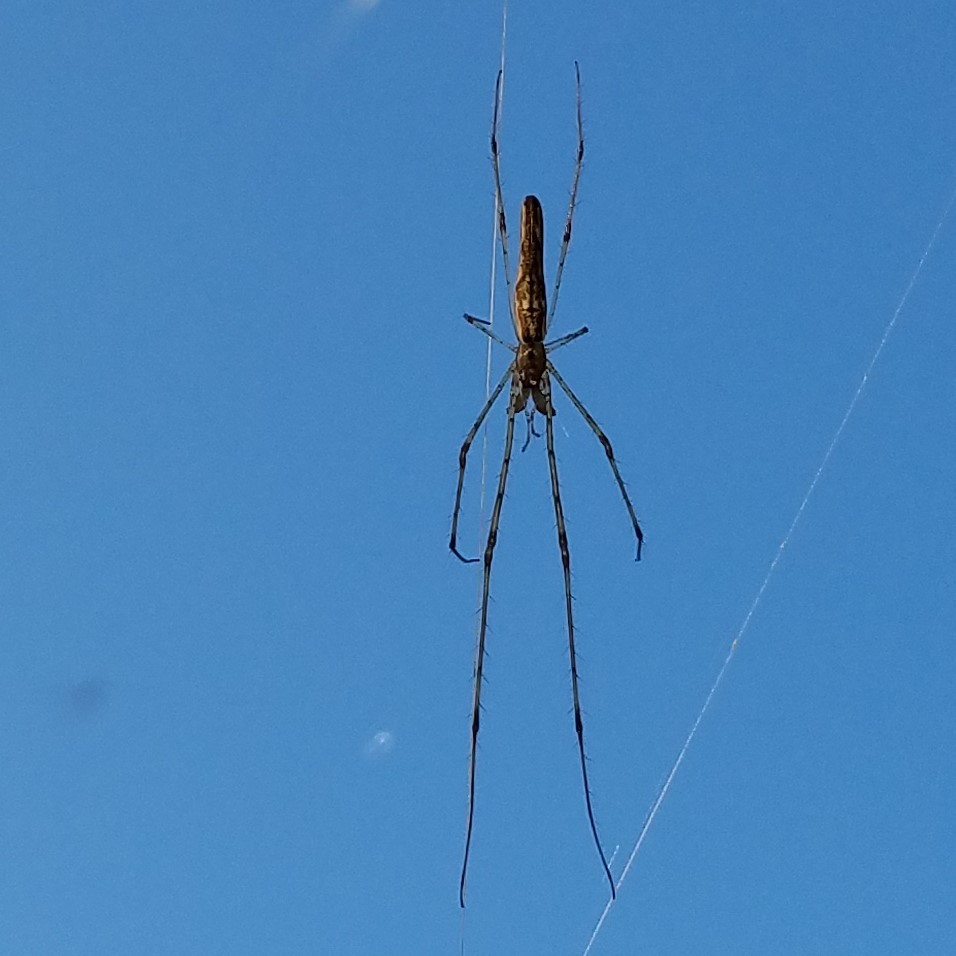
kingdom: Animalia
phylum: Arthropoda
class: Arachnida
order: Araneae
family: Tetragnathidae
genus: Tetragnatha
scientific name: Tetragnatha
